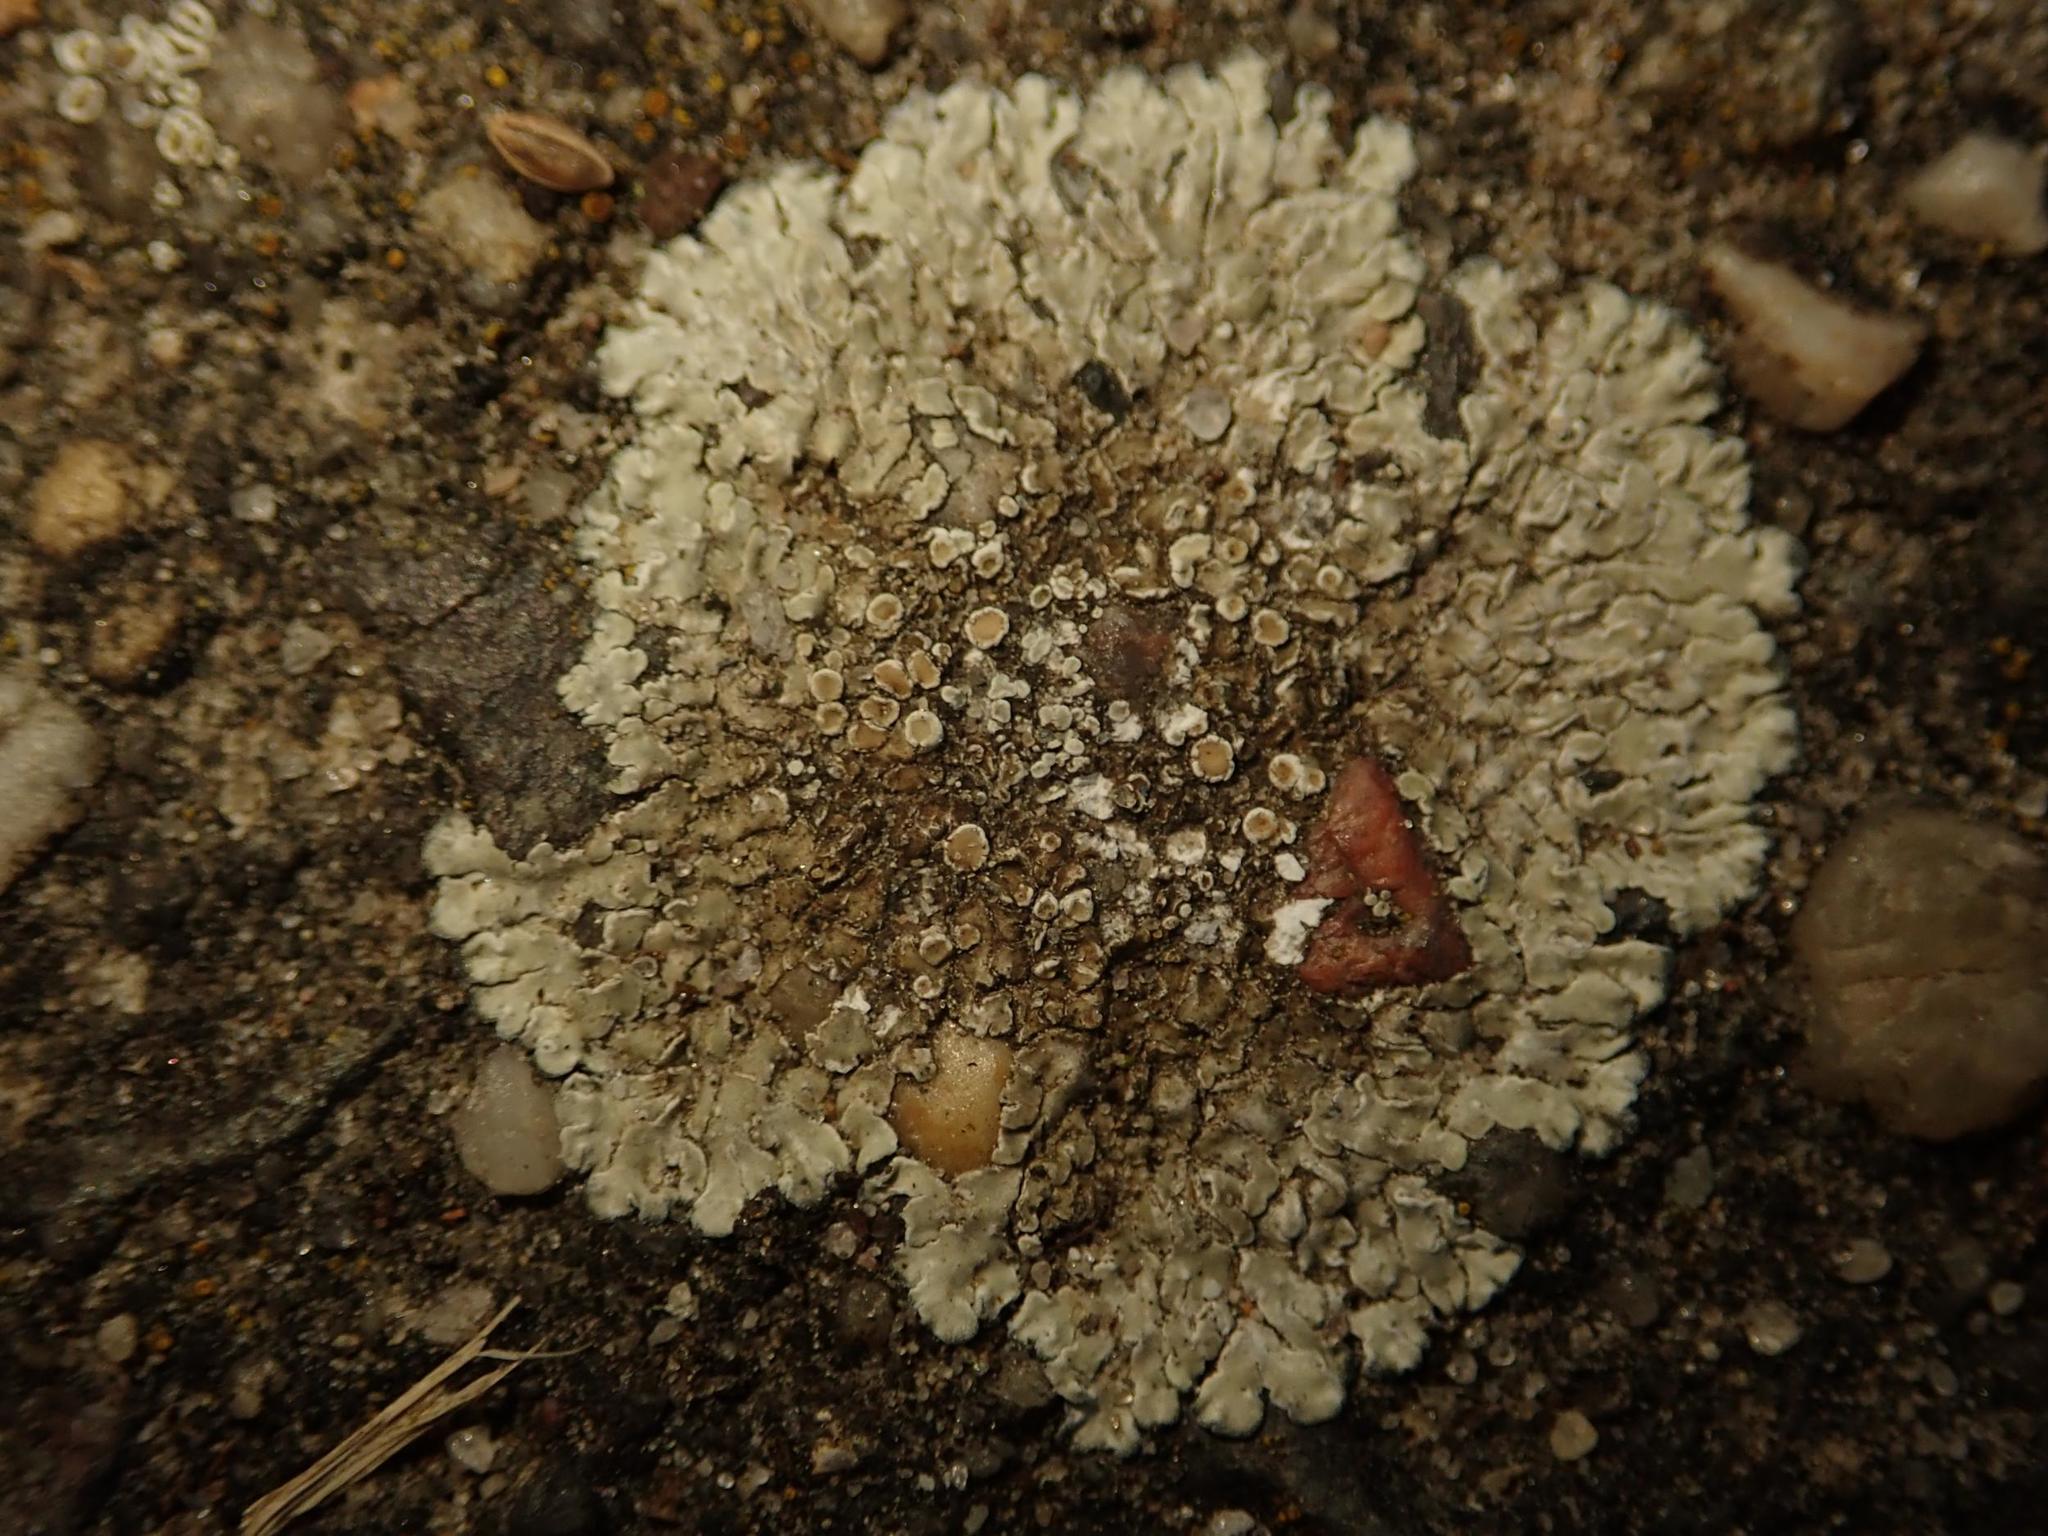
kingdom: Fungi
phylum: Ascomycota
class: Lecanoromycetes
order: Lecanorales
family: Lecanoraceae
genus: Protoparmeliopsis
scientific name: Protoparmeliopsis muralis
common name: Stonewall rim lichen
